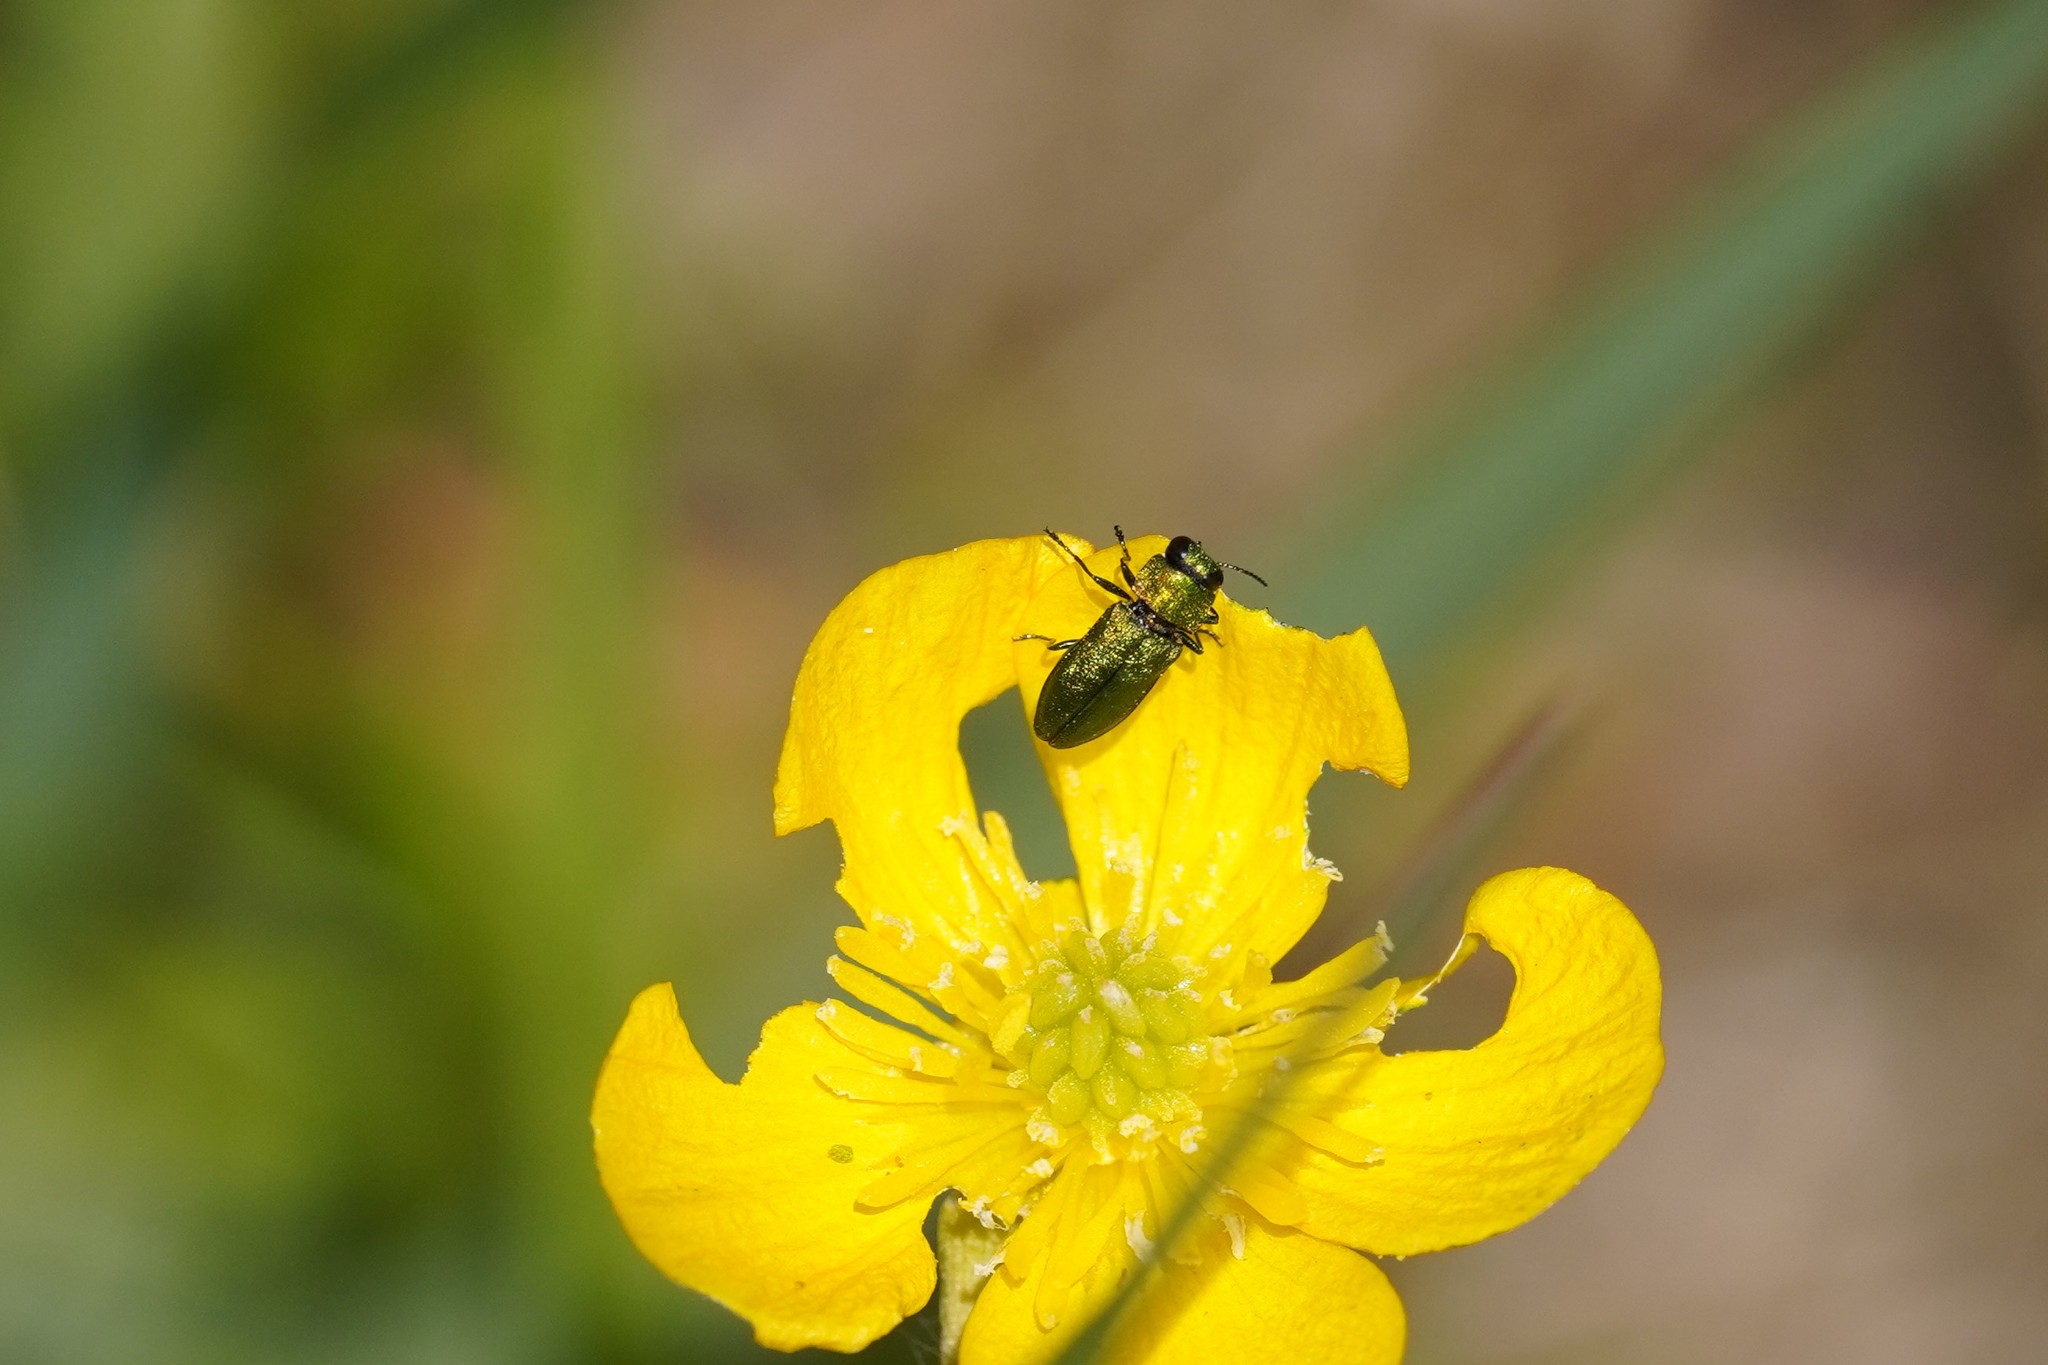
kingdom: Animalia
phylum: Arthropoda
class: Insecta
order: Coleoptera
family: Buprestidae
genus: Anthaxia
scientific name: Anthaxia nitidula
